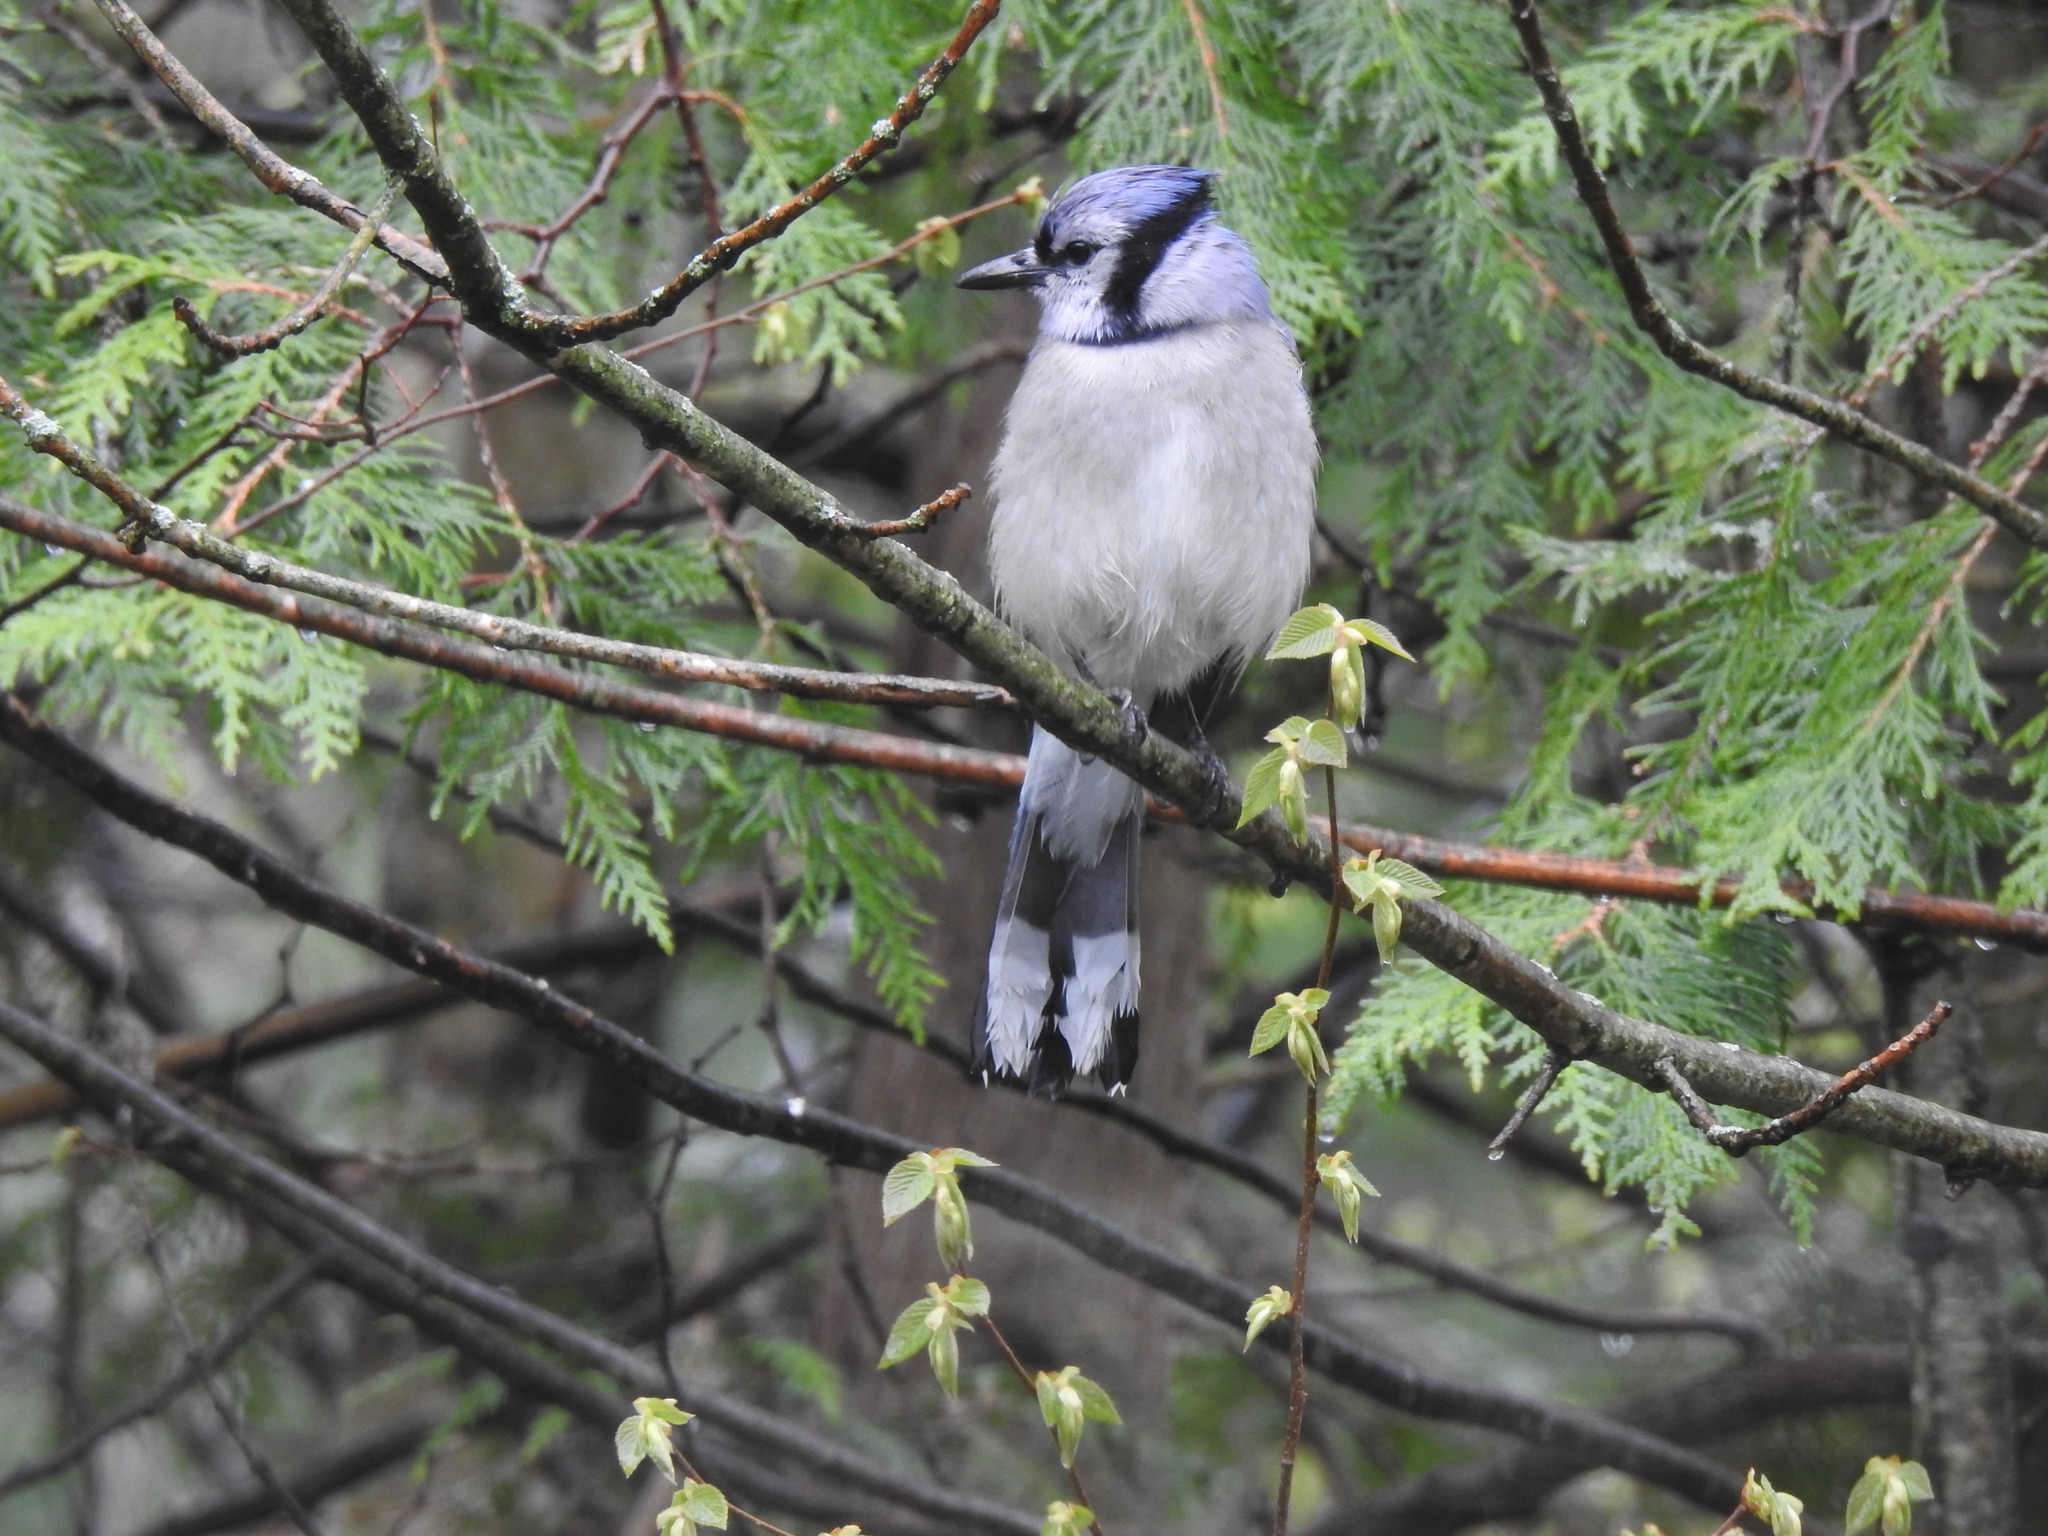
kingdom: Animalia
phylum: Chordata
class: Aves
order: Passeriformes
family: Corvidae
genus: Cyanocitta
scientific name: Cyanocitta cristata
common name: Blue jay
